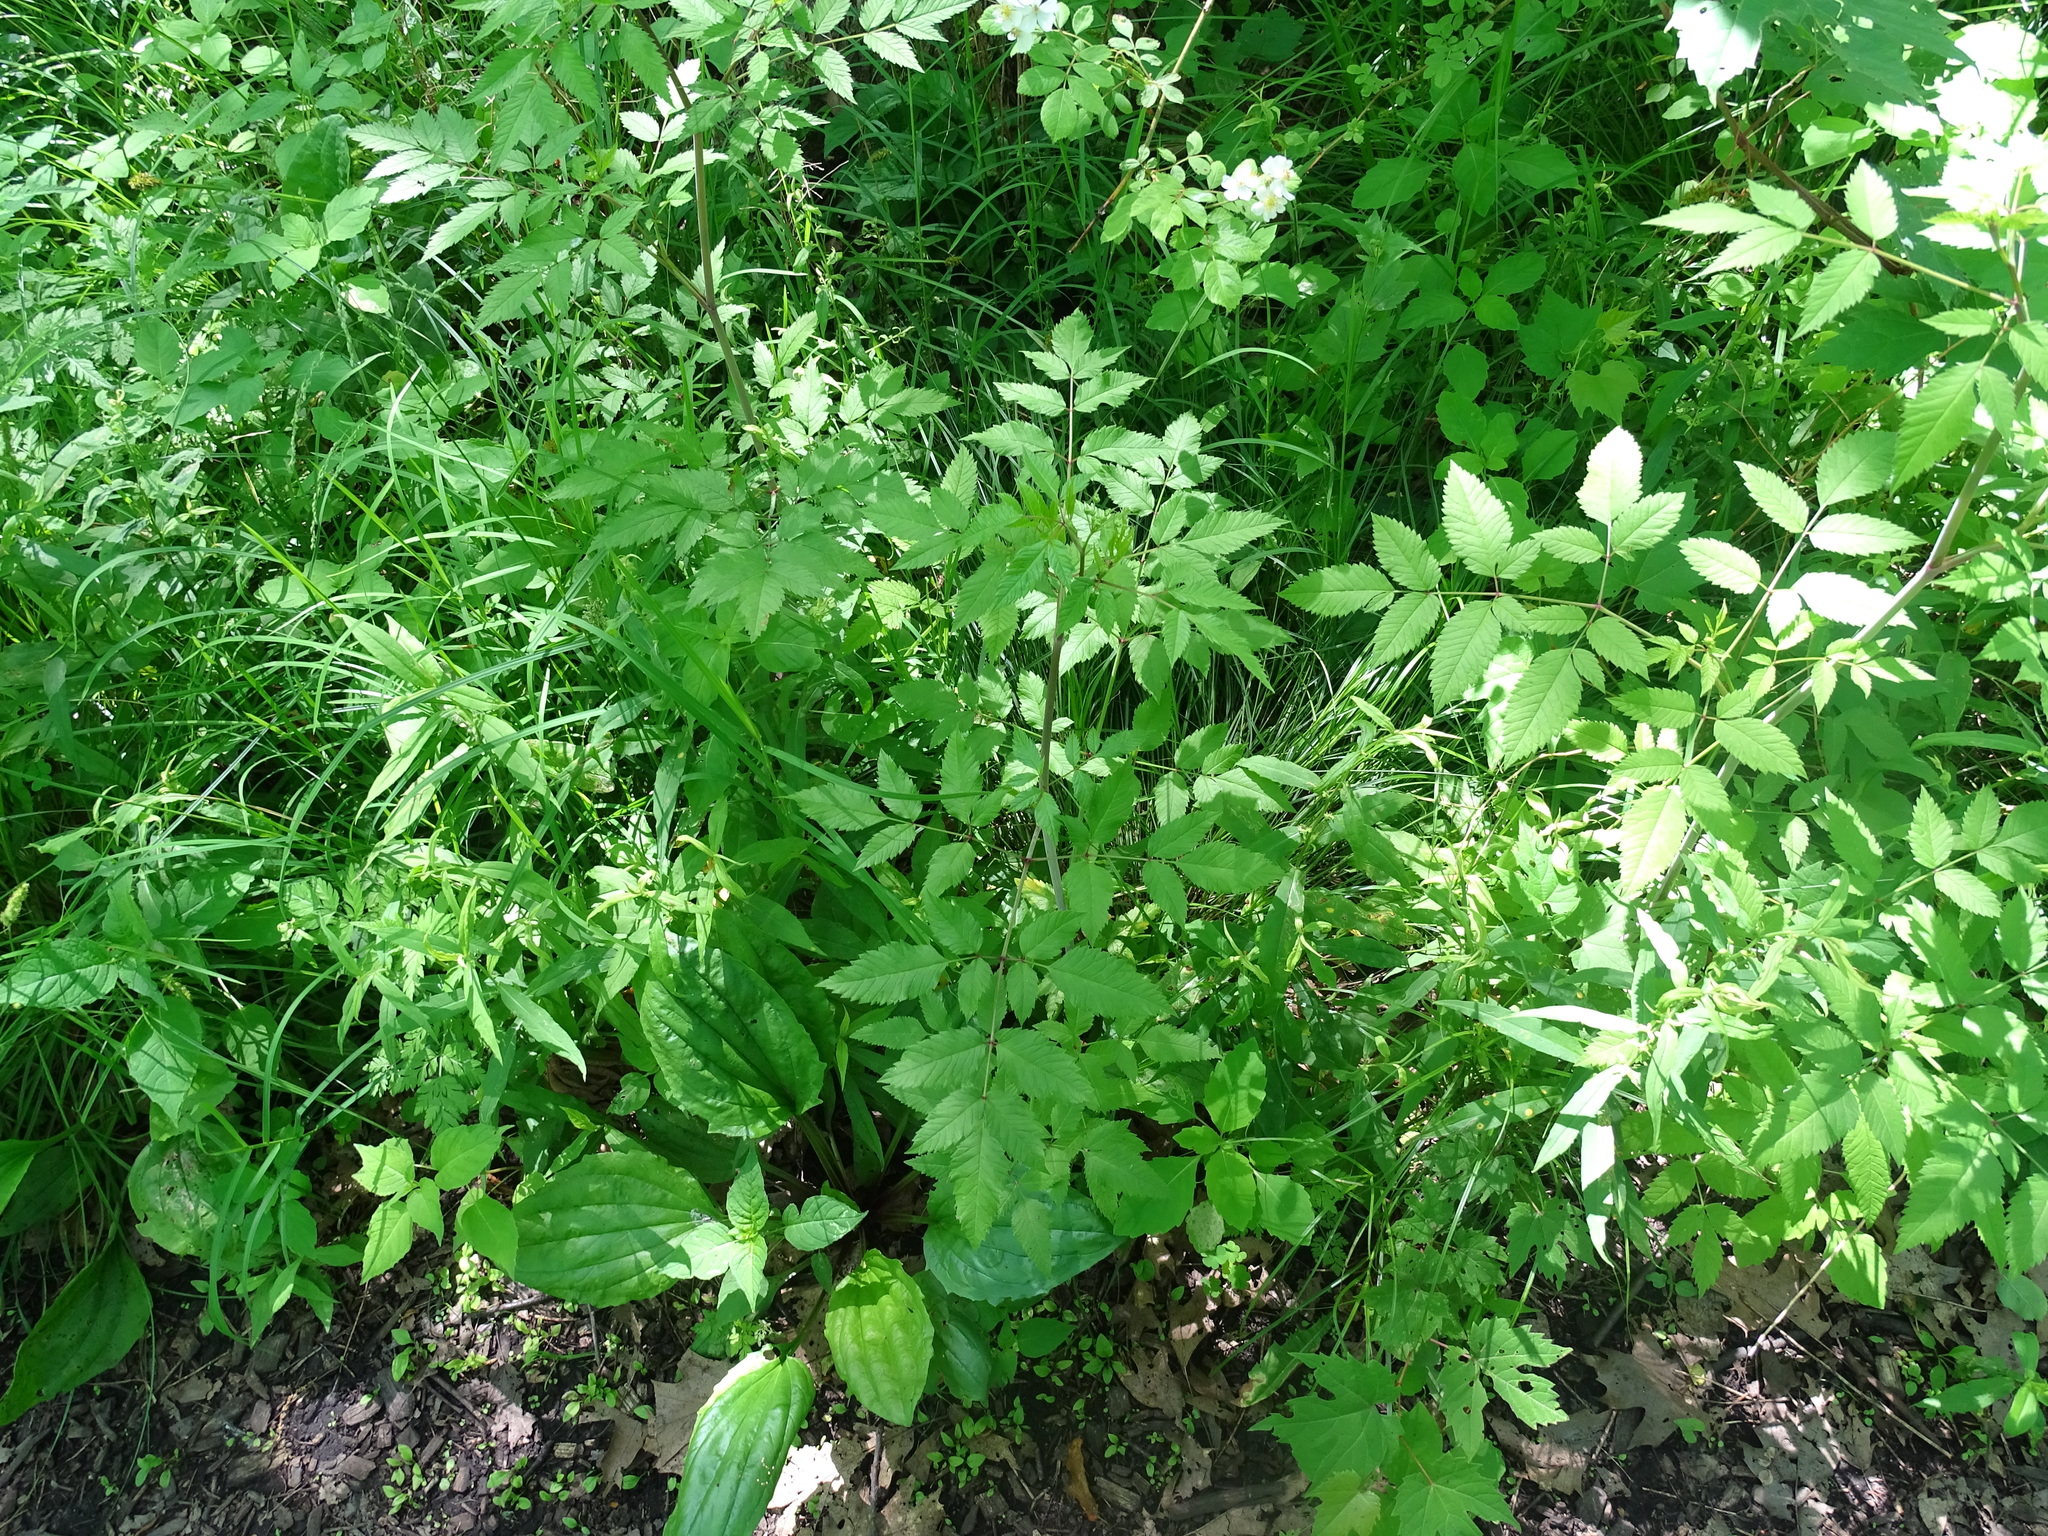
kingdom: Plantae
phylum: Tracheophyta
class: Magnoliopsida
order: Apiales
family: Apiaceae
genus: Conium
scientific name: Conium maculatum
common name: Hemlock
